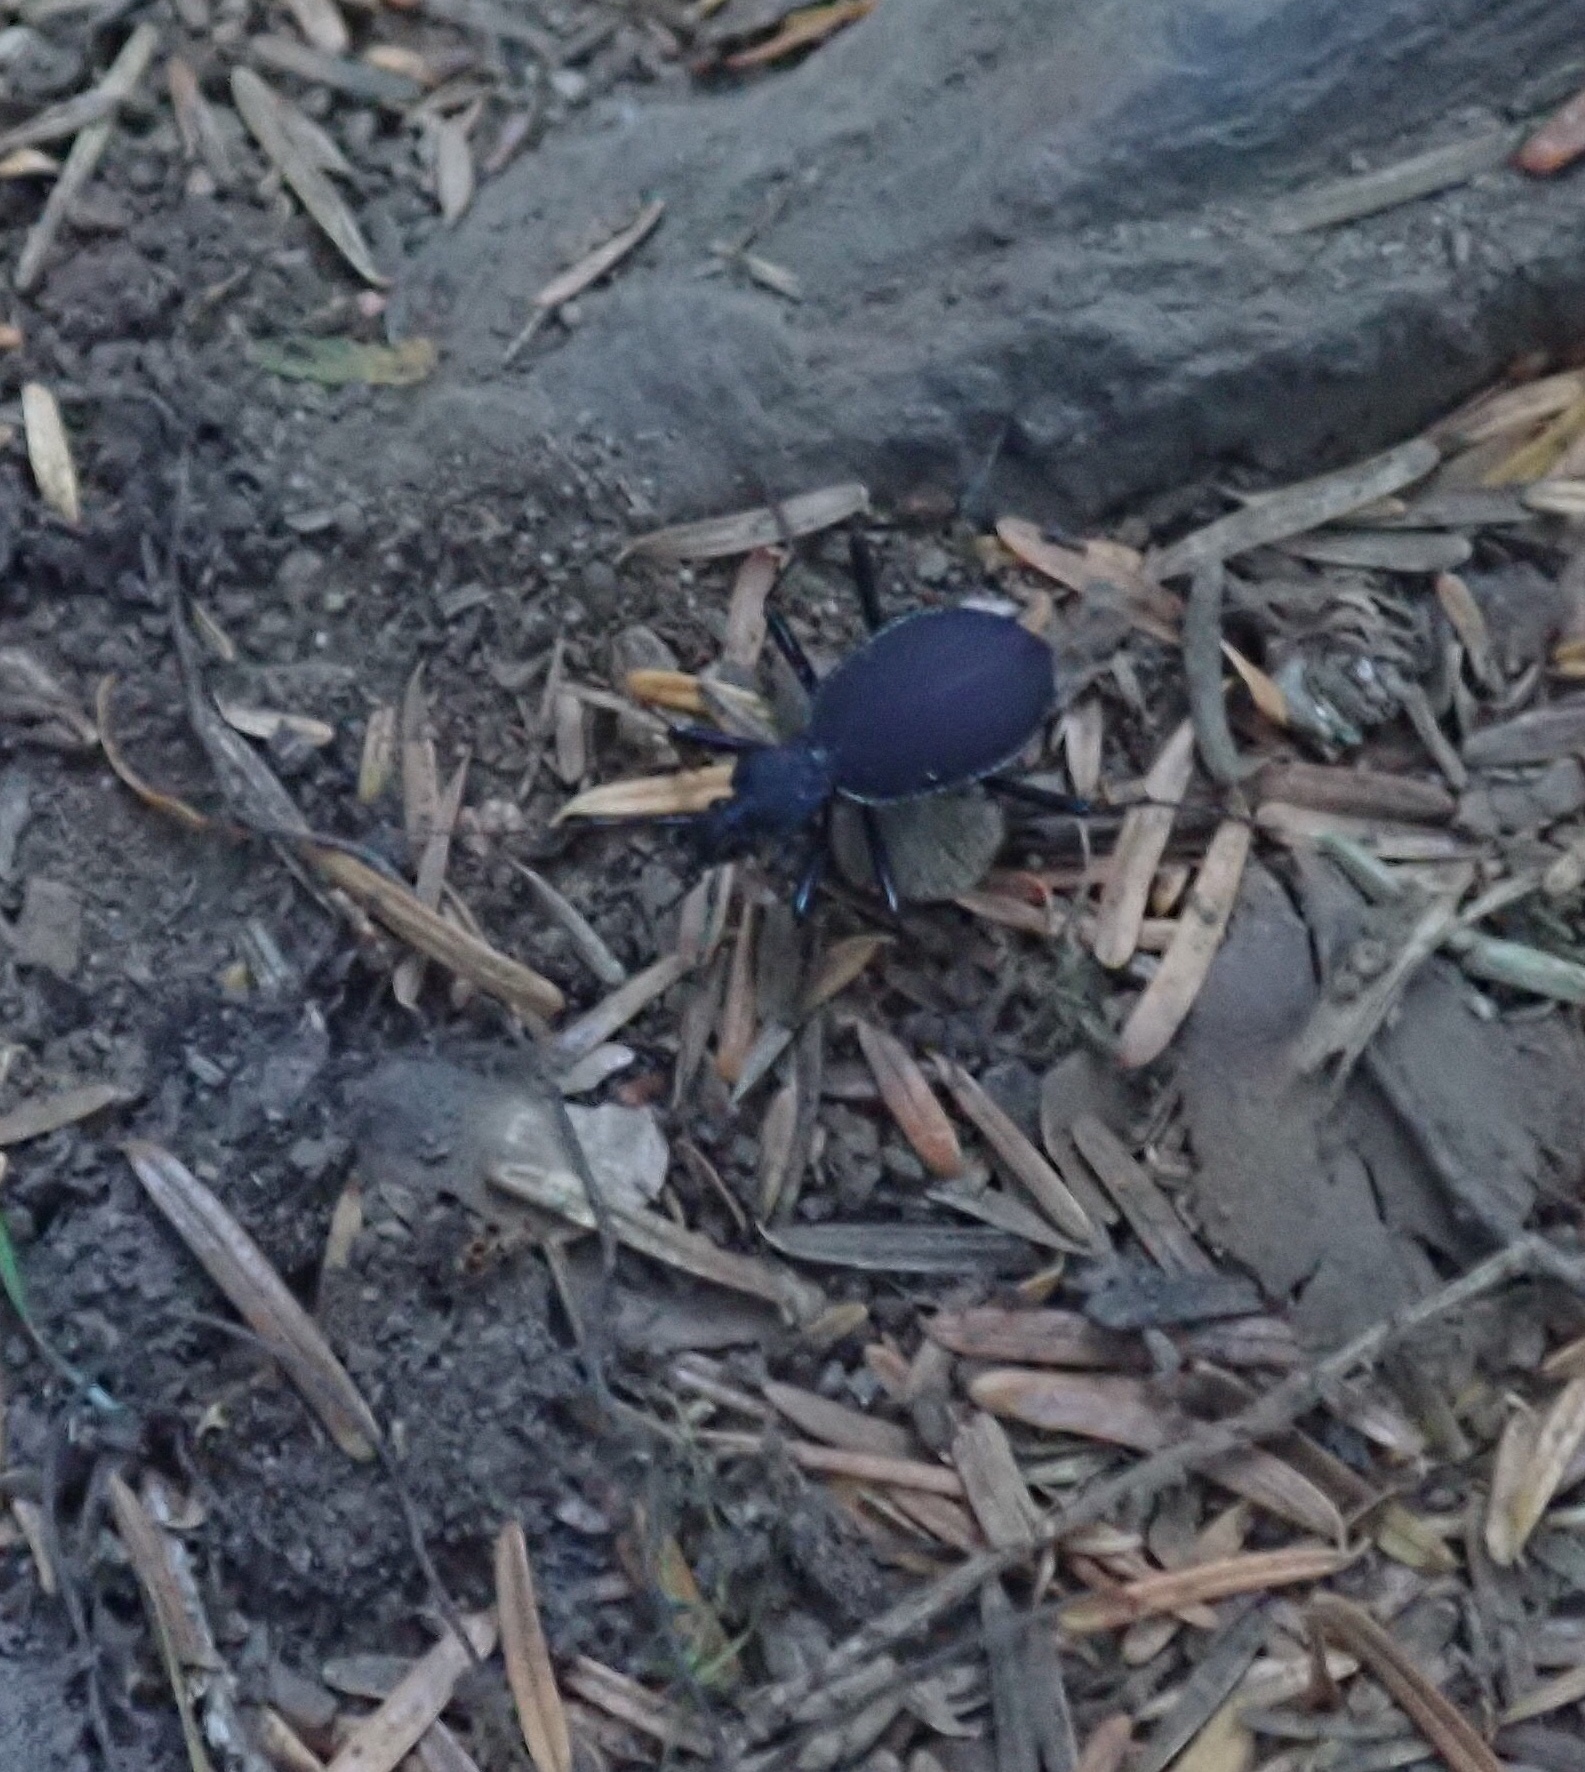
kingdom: Animalia
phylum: Arthropoda
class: Insecta
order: Coleoptera
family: Carabidae
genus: Scaphinotus
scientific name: Scaphinotus angusticollis
